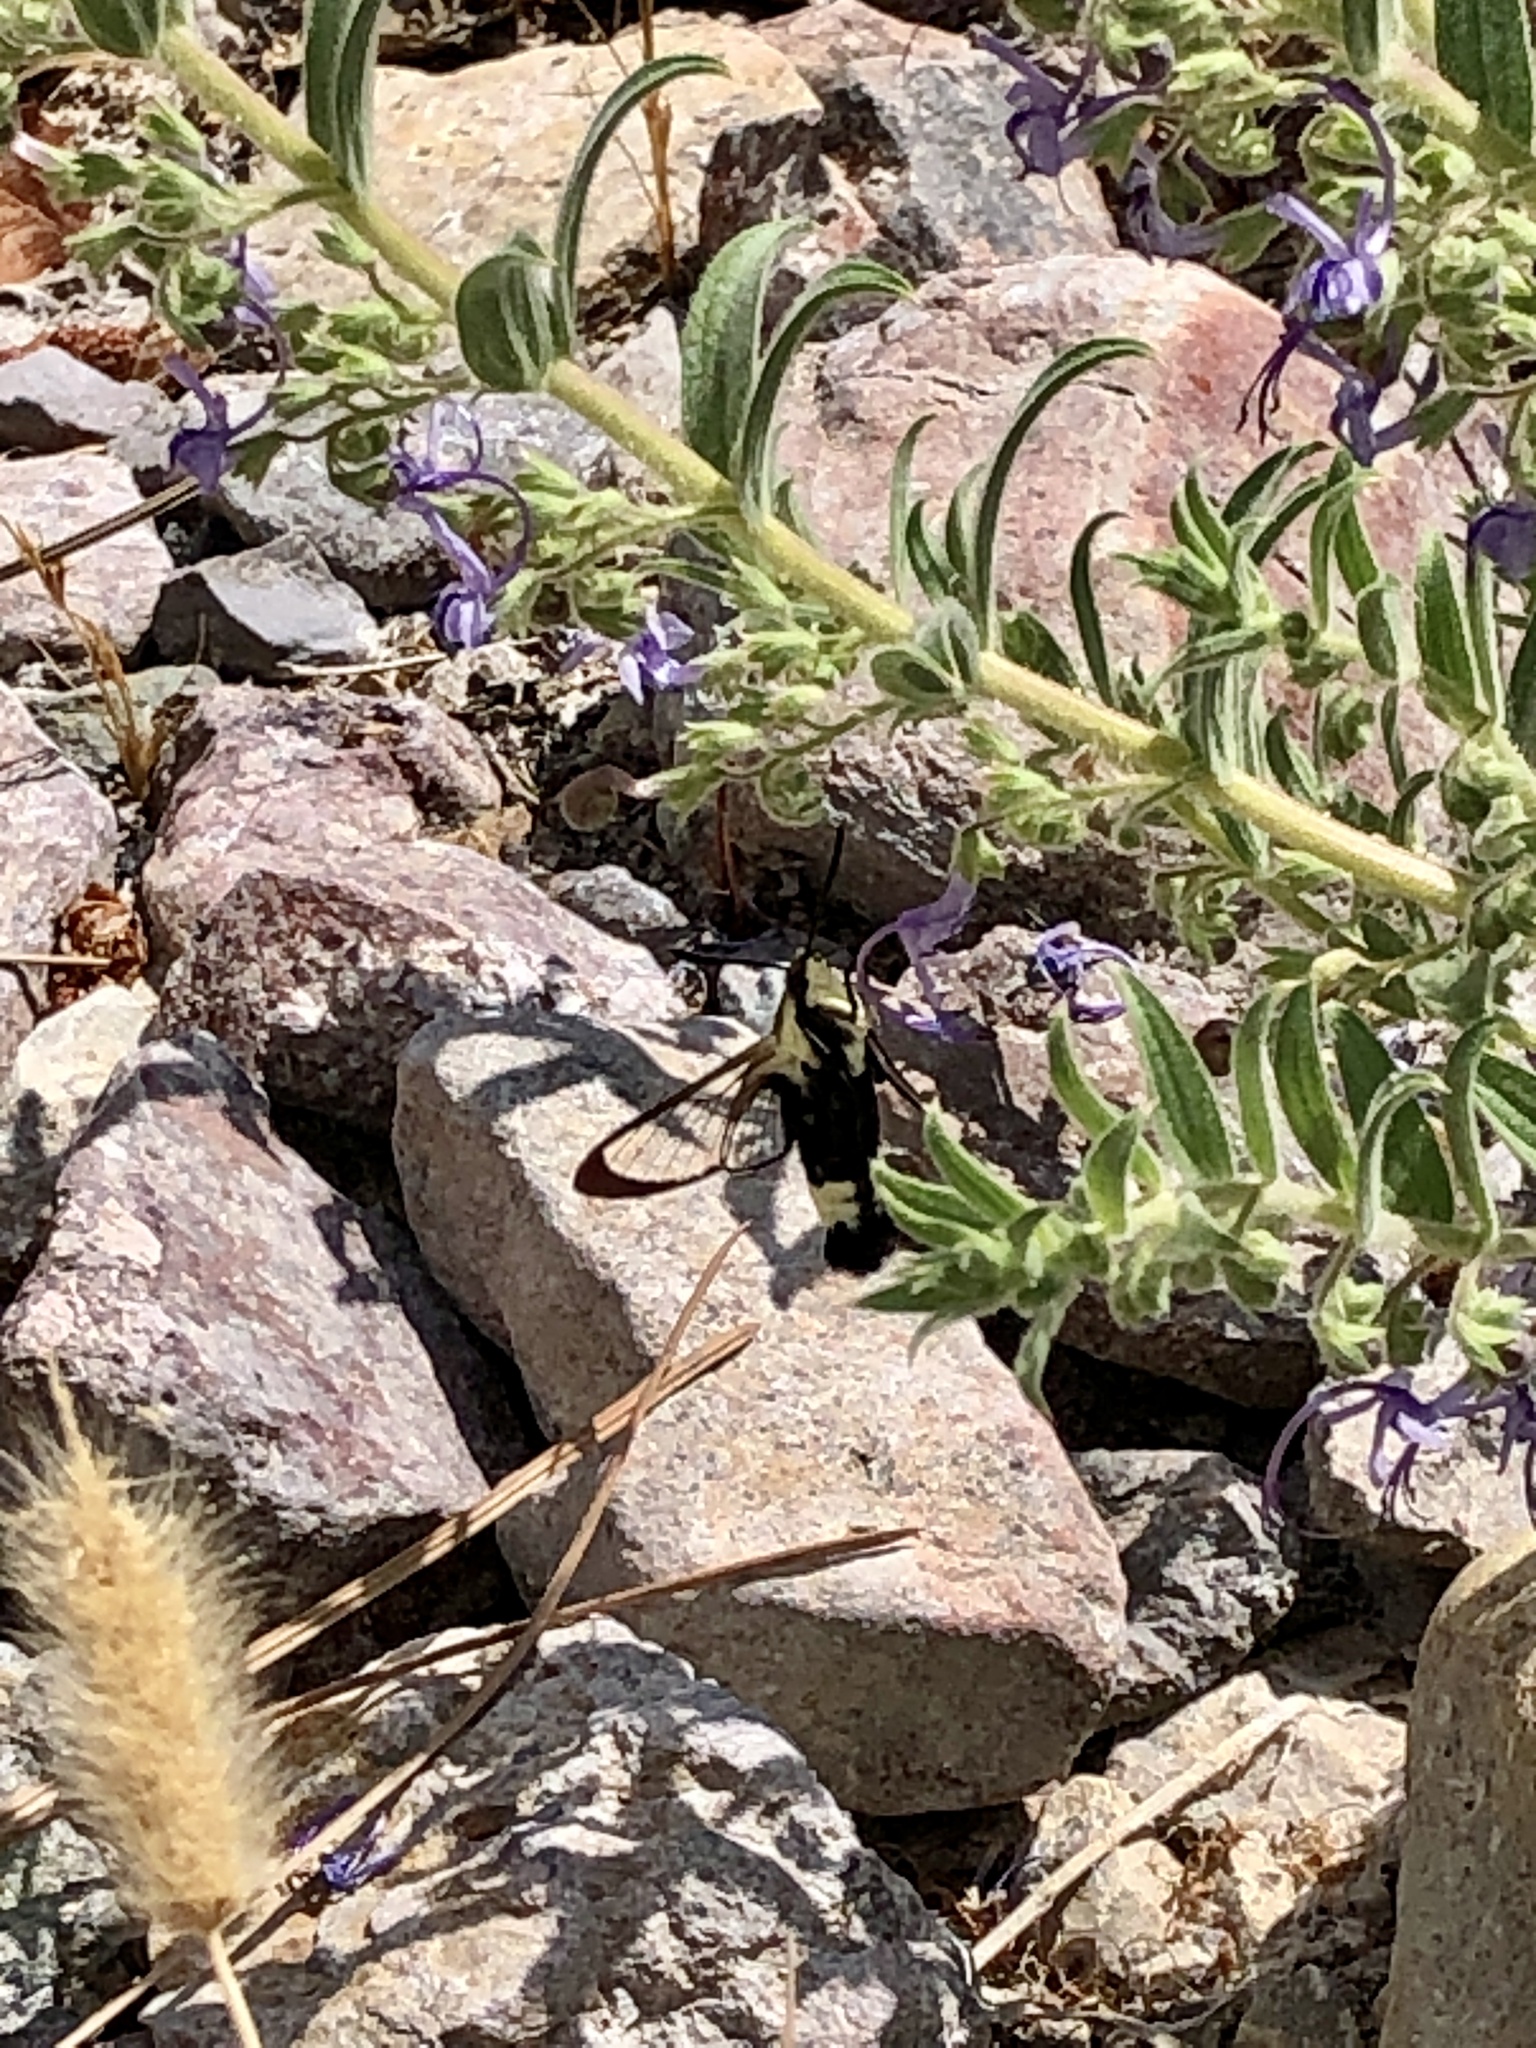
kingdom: Animalia
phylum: Arthropoda
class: Insecta
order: Lepidoptera
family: Sphingidae
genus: Hemaris
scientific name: Hemaris thetis
